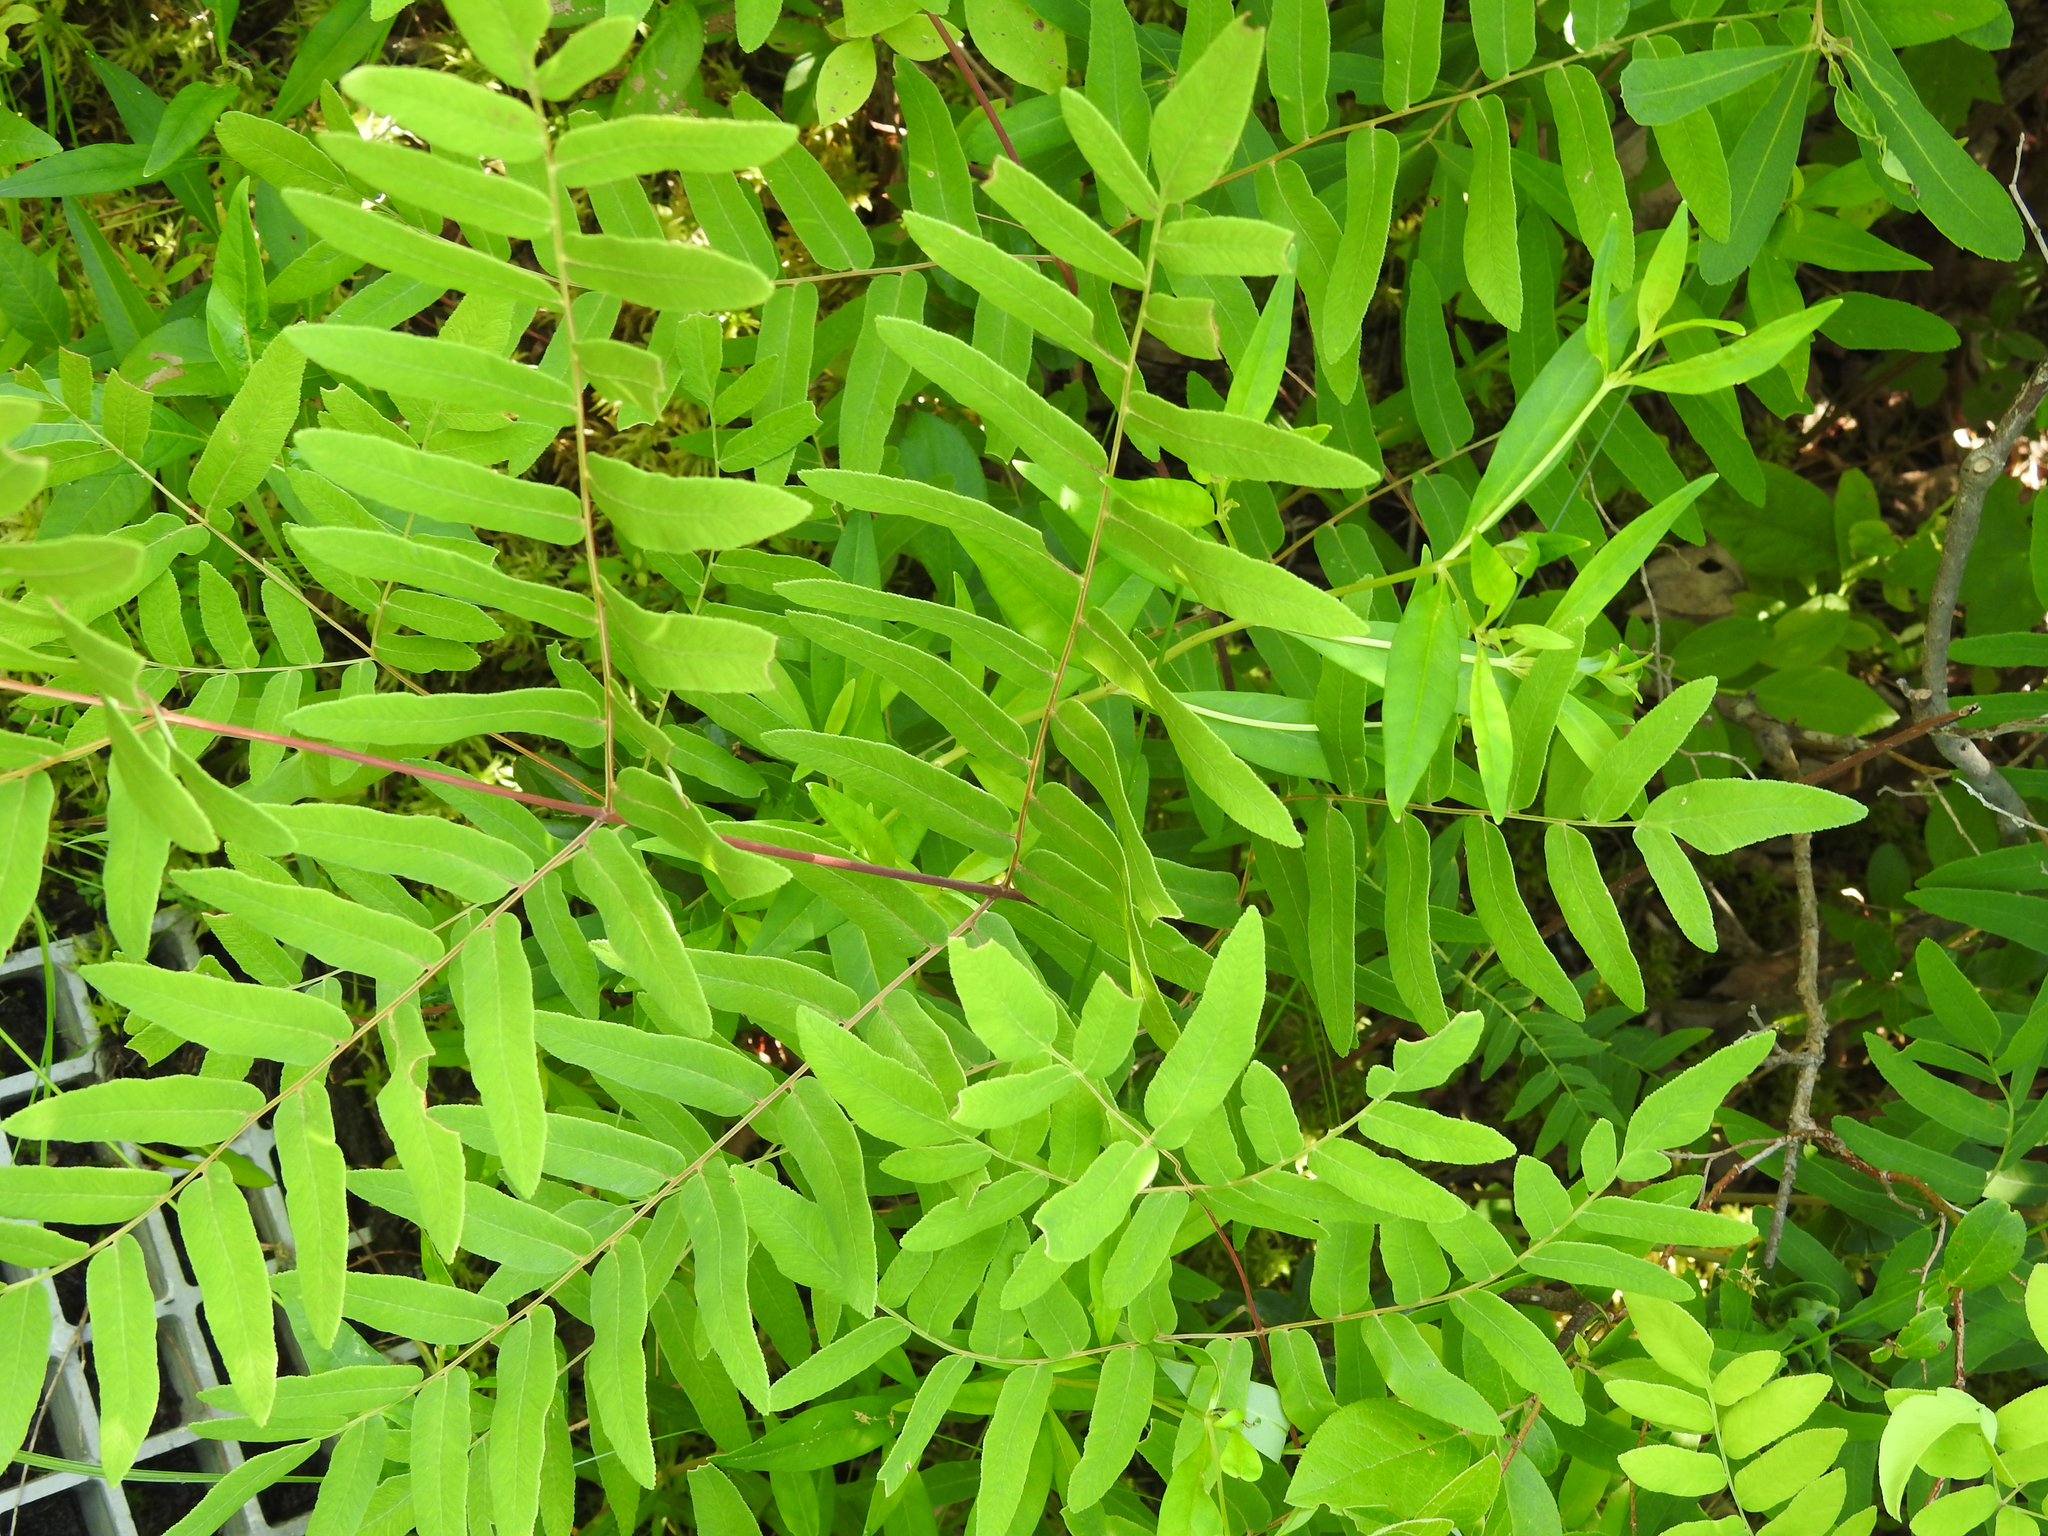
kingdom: Plantae
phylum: Tracheophyta
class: Polypodiopsida
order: Osmundales
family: Osmundaceae
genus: Osmunda
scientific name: Osmunda spectabilis
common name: American royal fern
